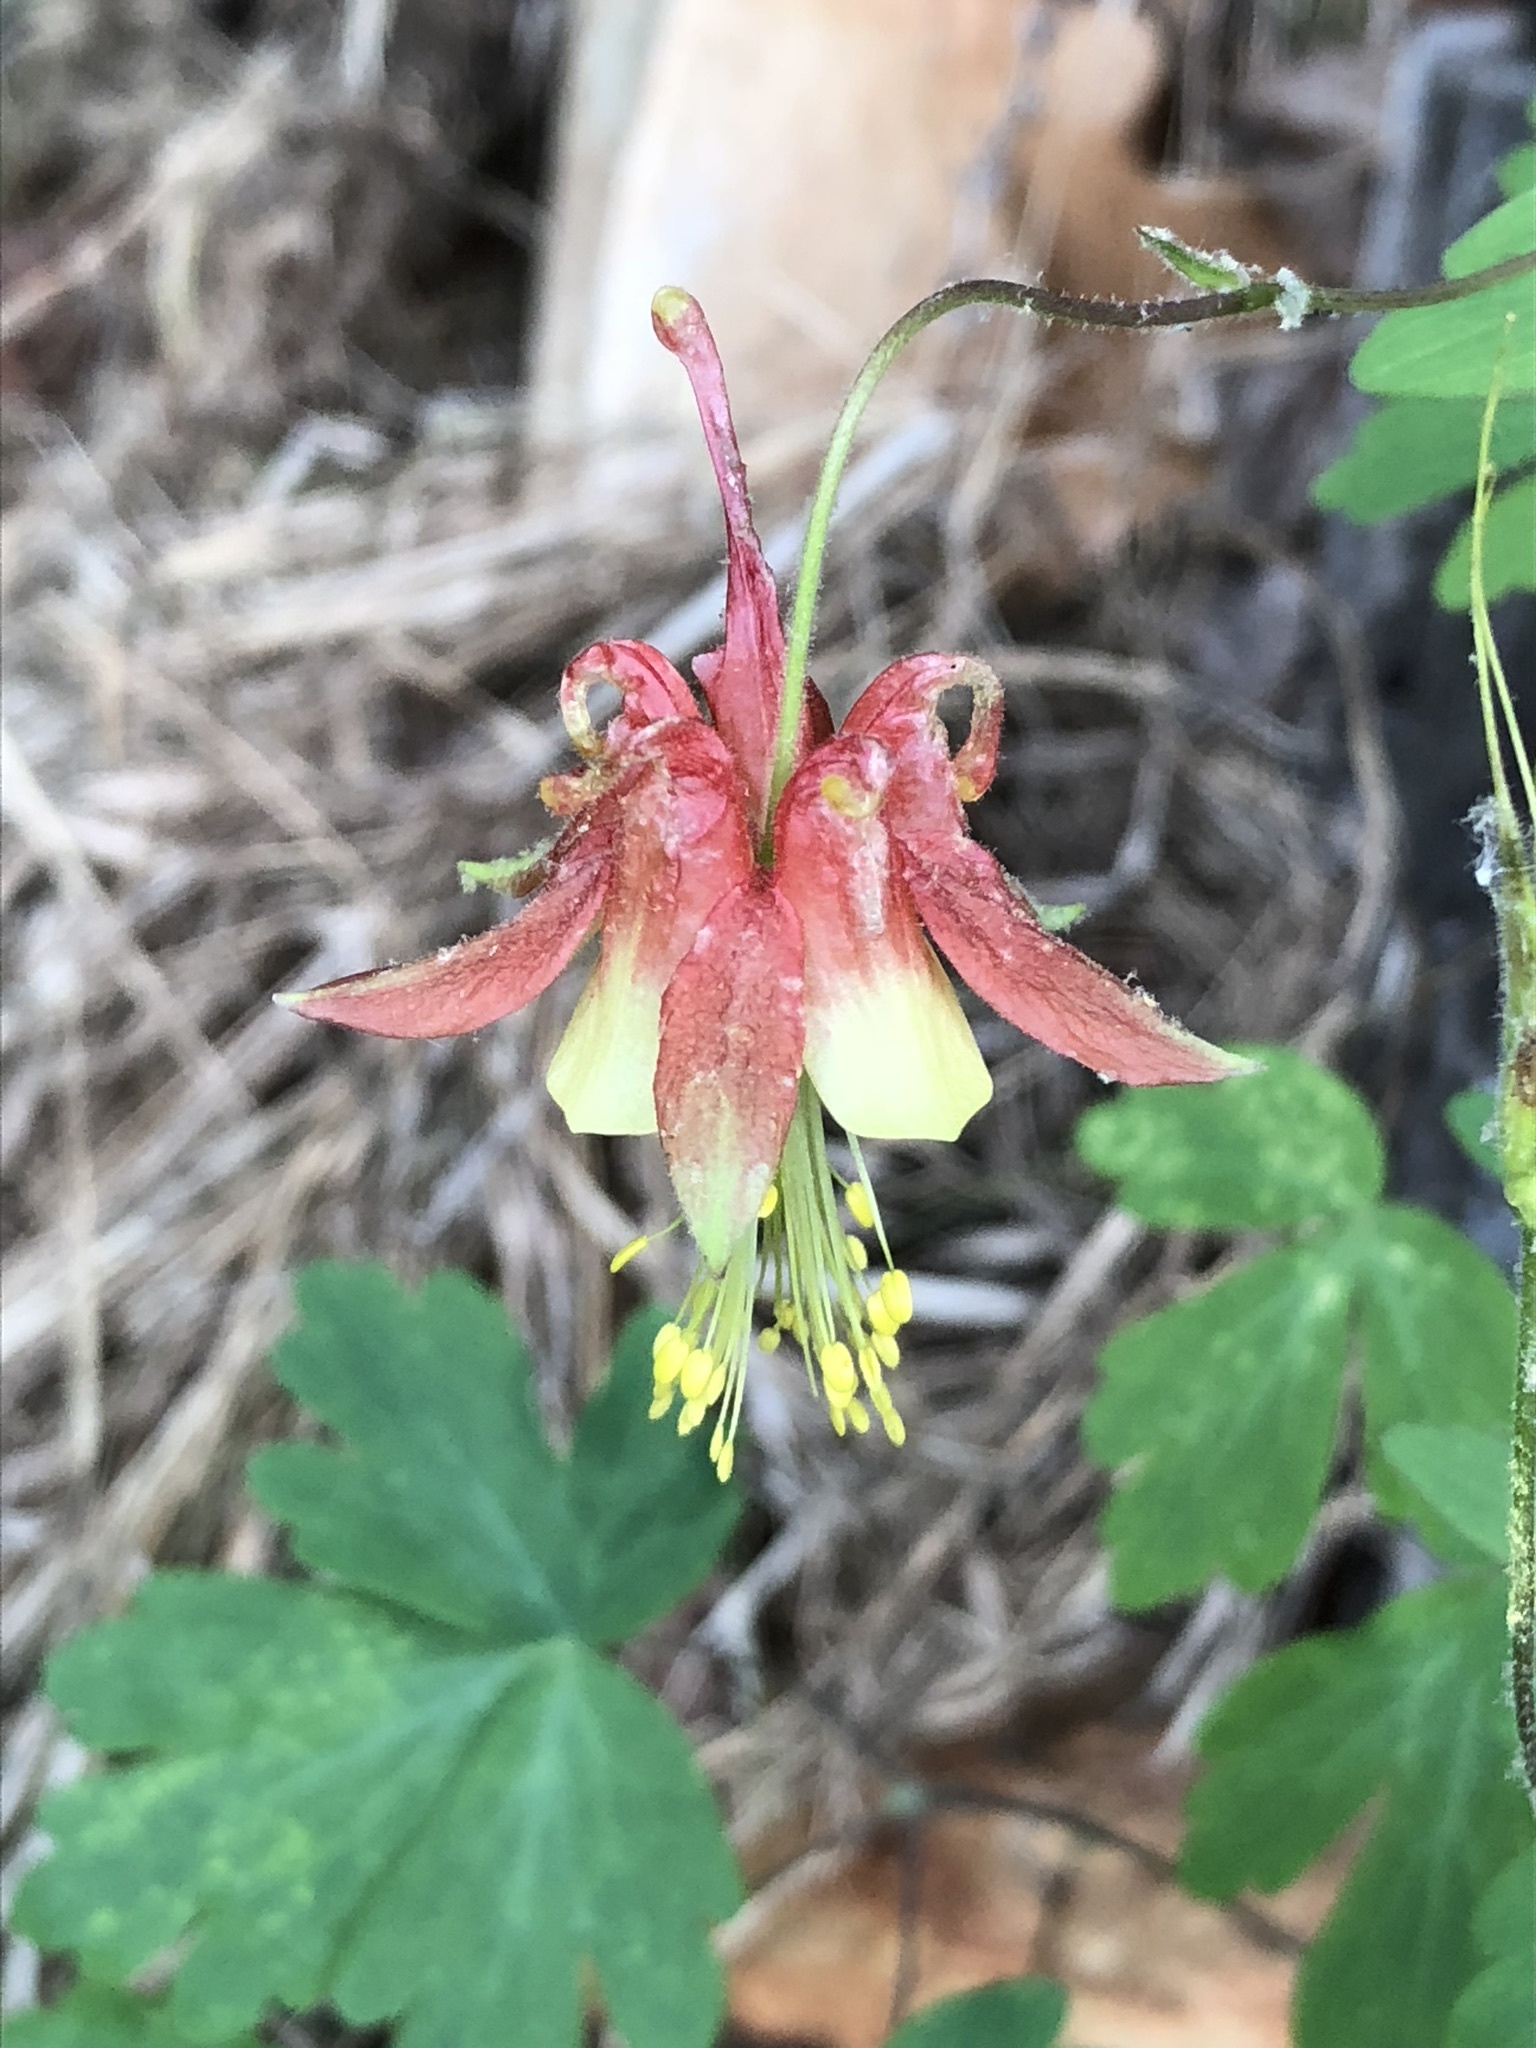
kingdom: Plantae
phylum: Tracheophyta
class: Magnoliopsida
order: Ranunculales
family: Ranunculaceae
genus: Aquilegia
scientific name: Aquilegia canadensis
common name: American columbine
